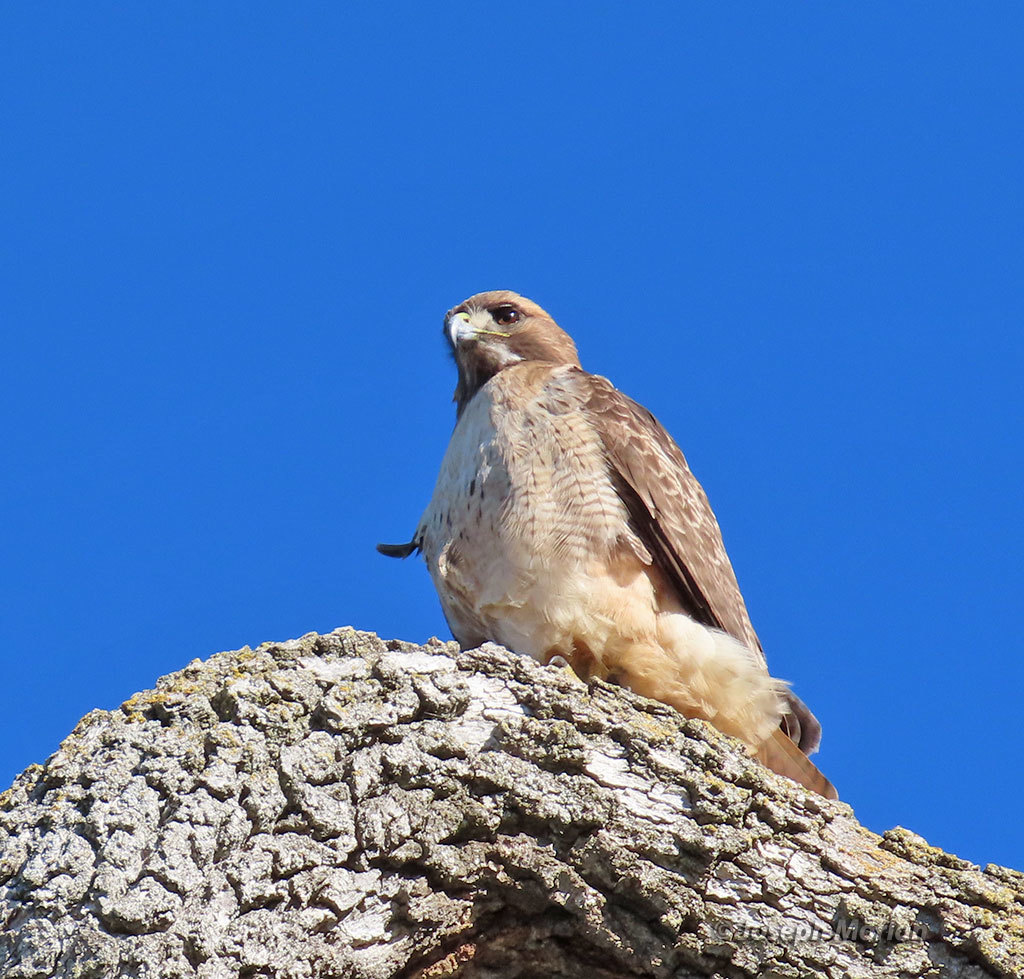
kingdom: Animalia
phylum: Chordata
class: Aves
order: Accipitriformes
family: Accipitridae
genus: Buteo
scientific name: Buteo jamaicensis
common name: Red-tailed hawk
